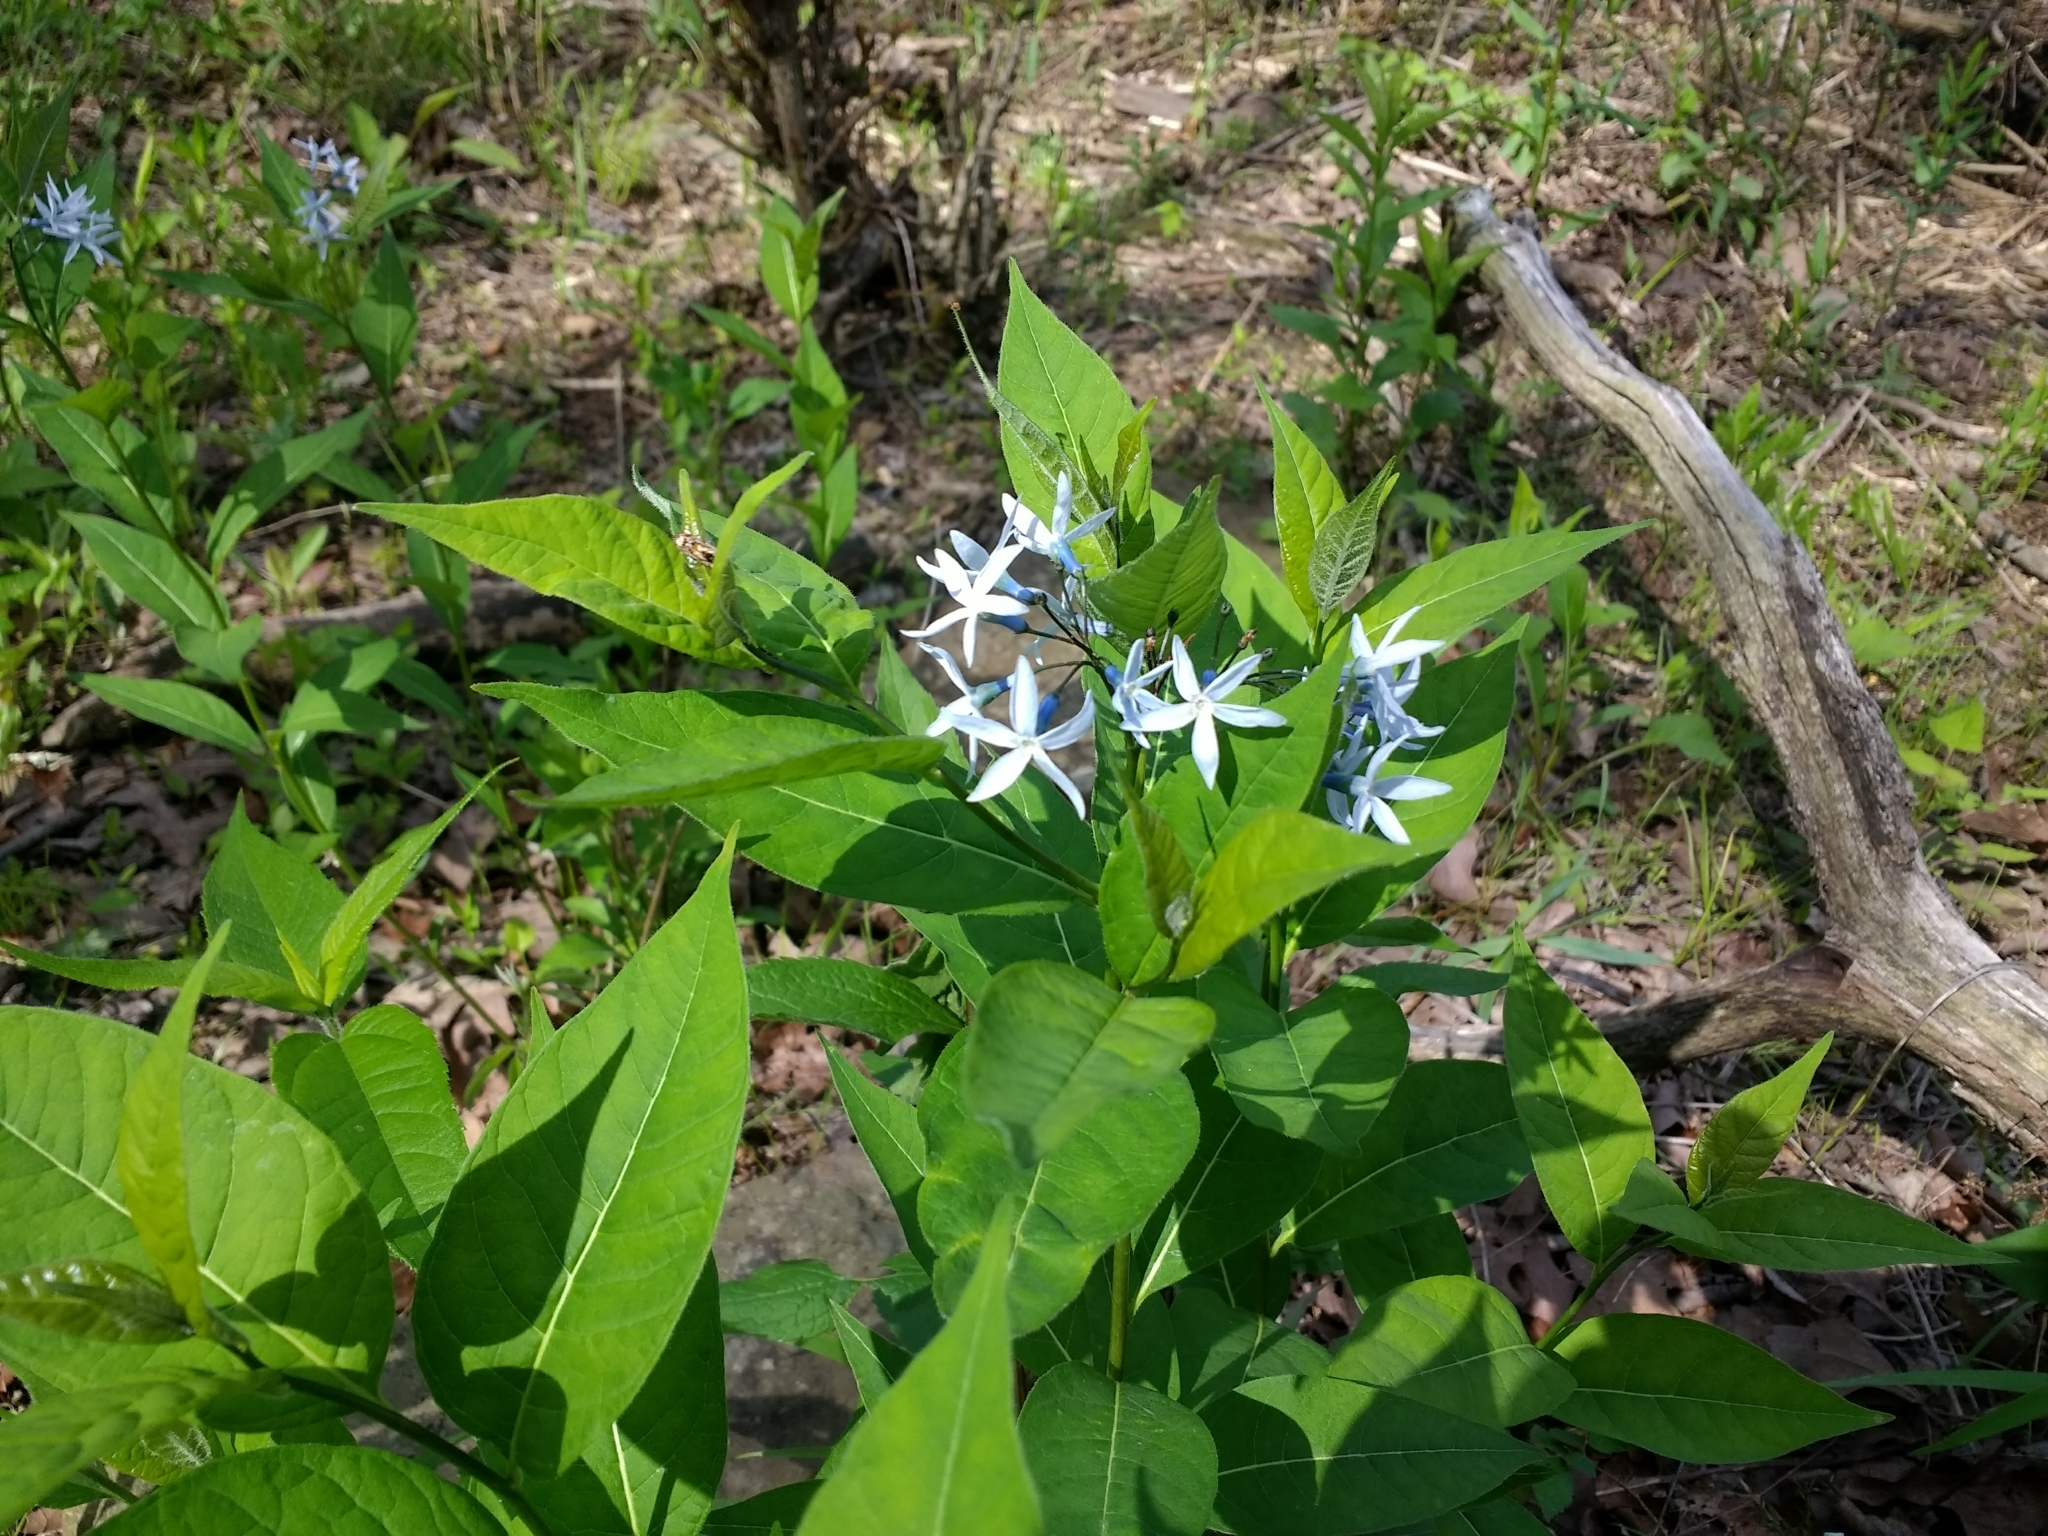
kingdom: Plantae
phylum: Tracheophyta
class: Magnoliopsida
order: Gentianales
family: Apocynaceae
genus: Amsonia
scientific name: Amsonia tabernaemontana
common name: Texas-star
